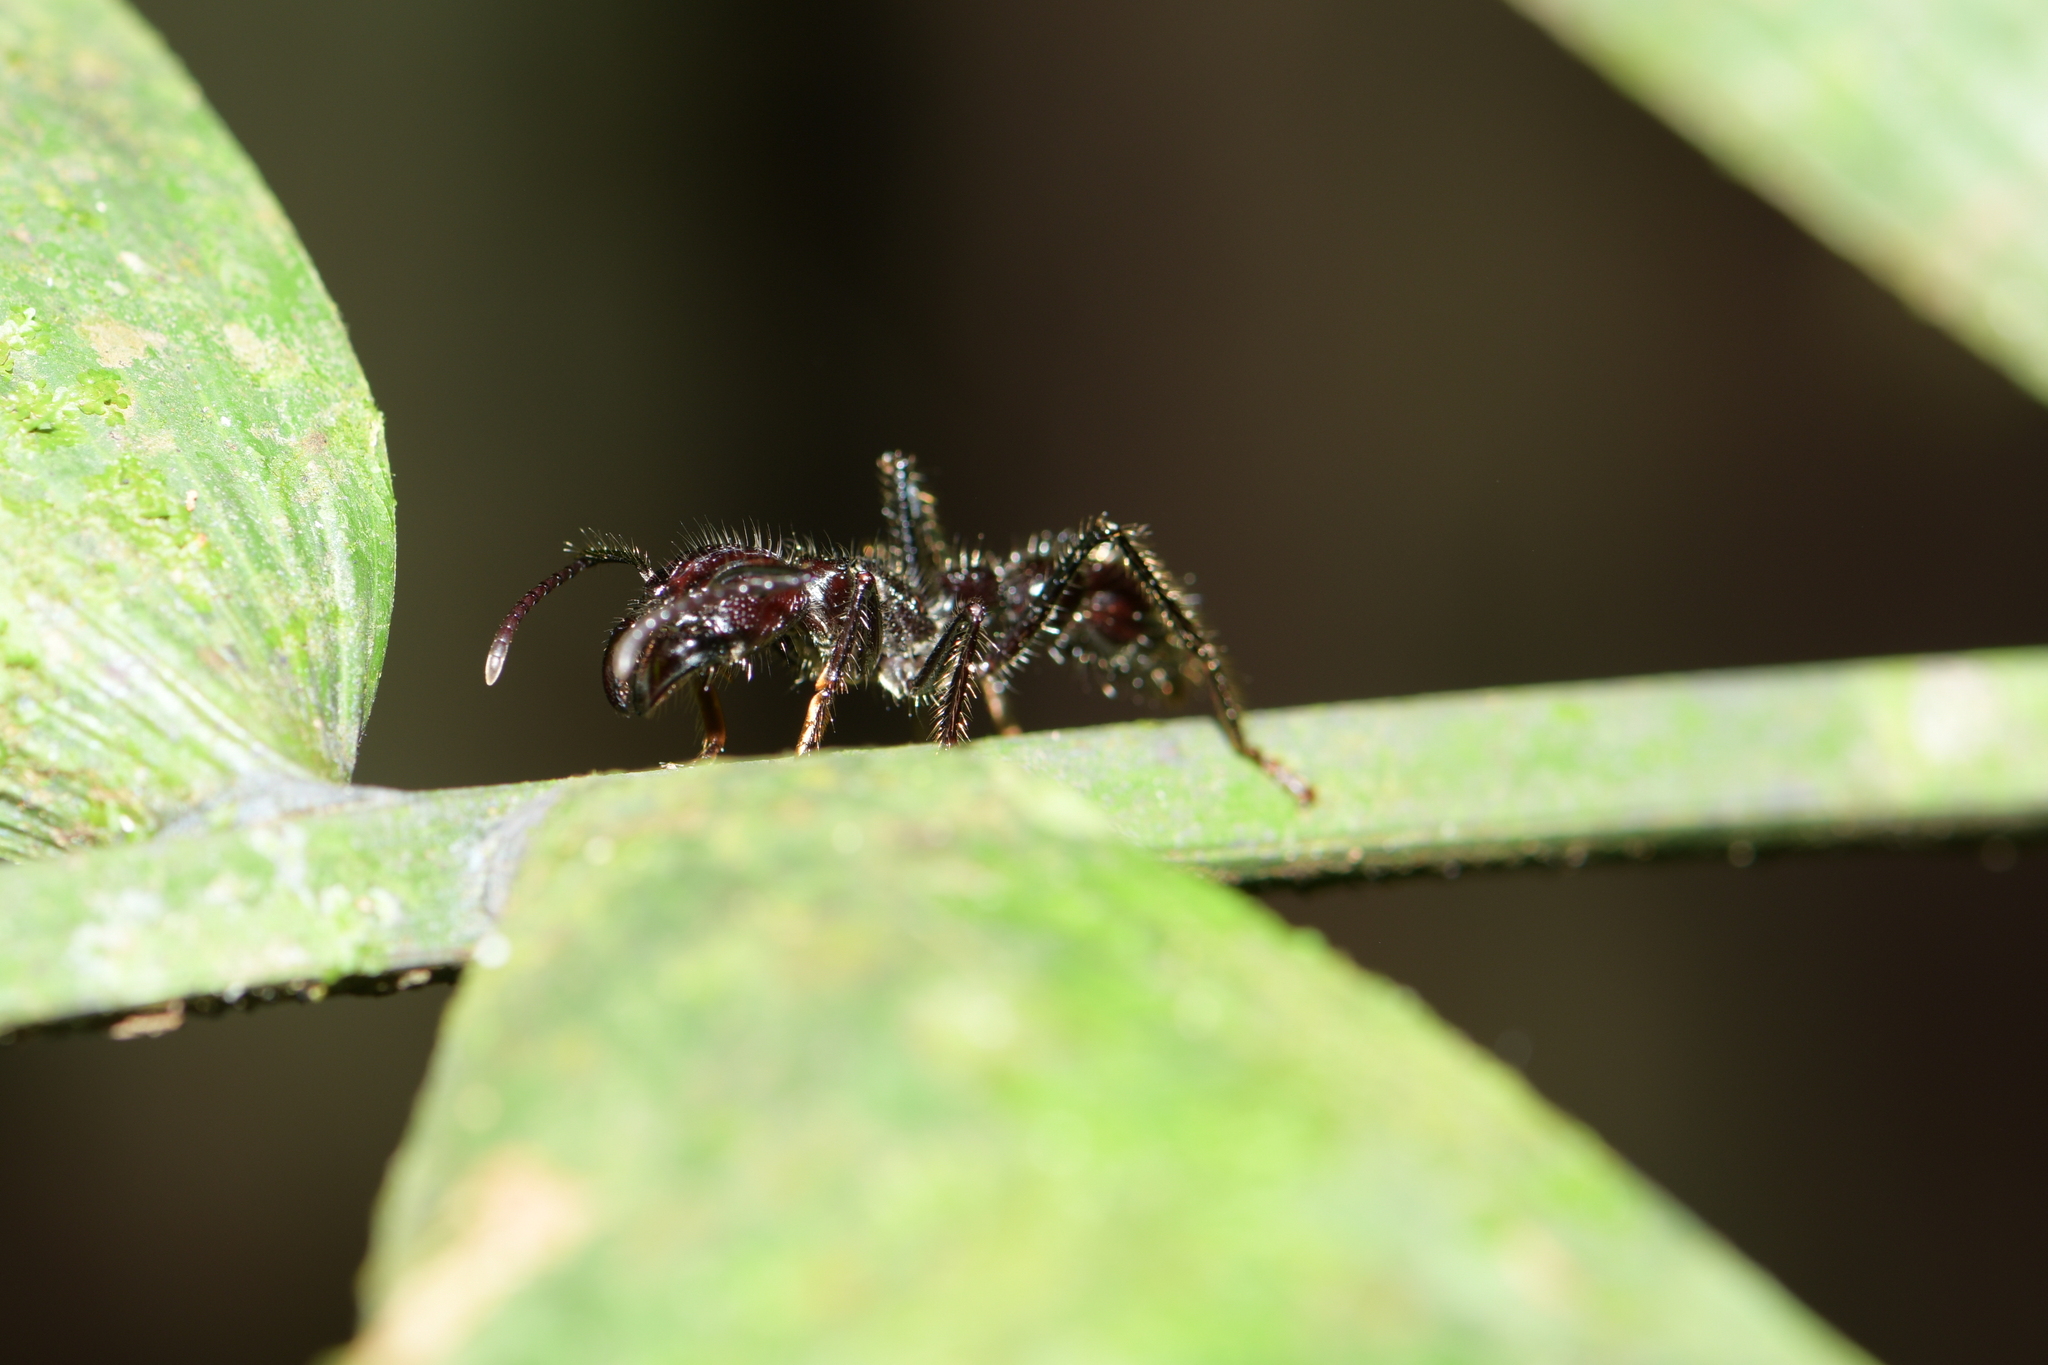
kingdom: Animalia
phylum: Arthropoda
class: Insecta
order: Hymenoptera
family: Formicidae
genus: Paraponera
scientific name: Paraponera clavata
